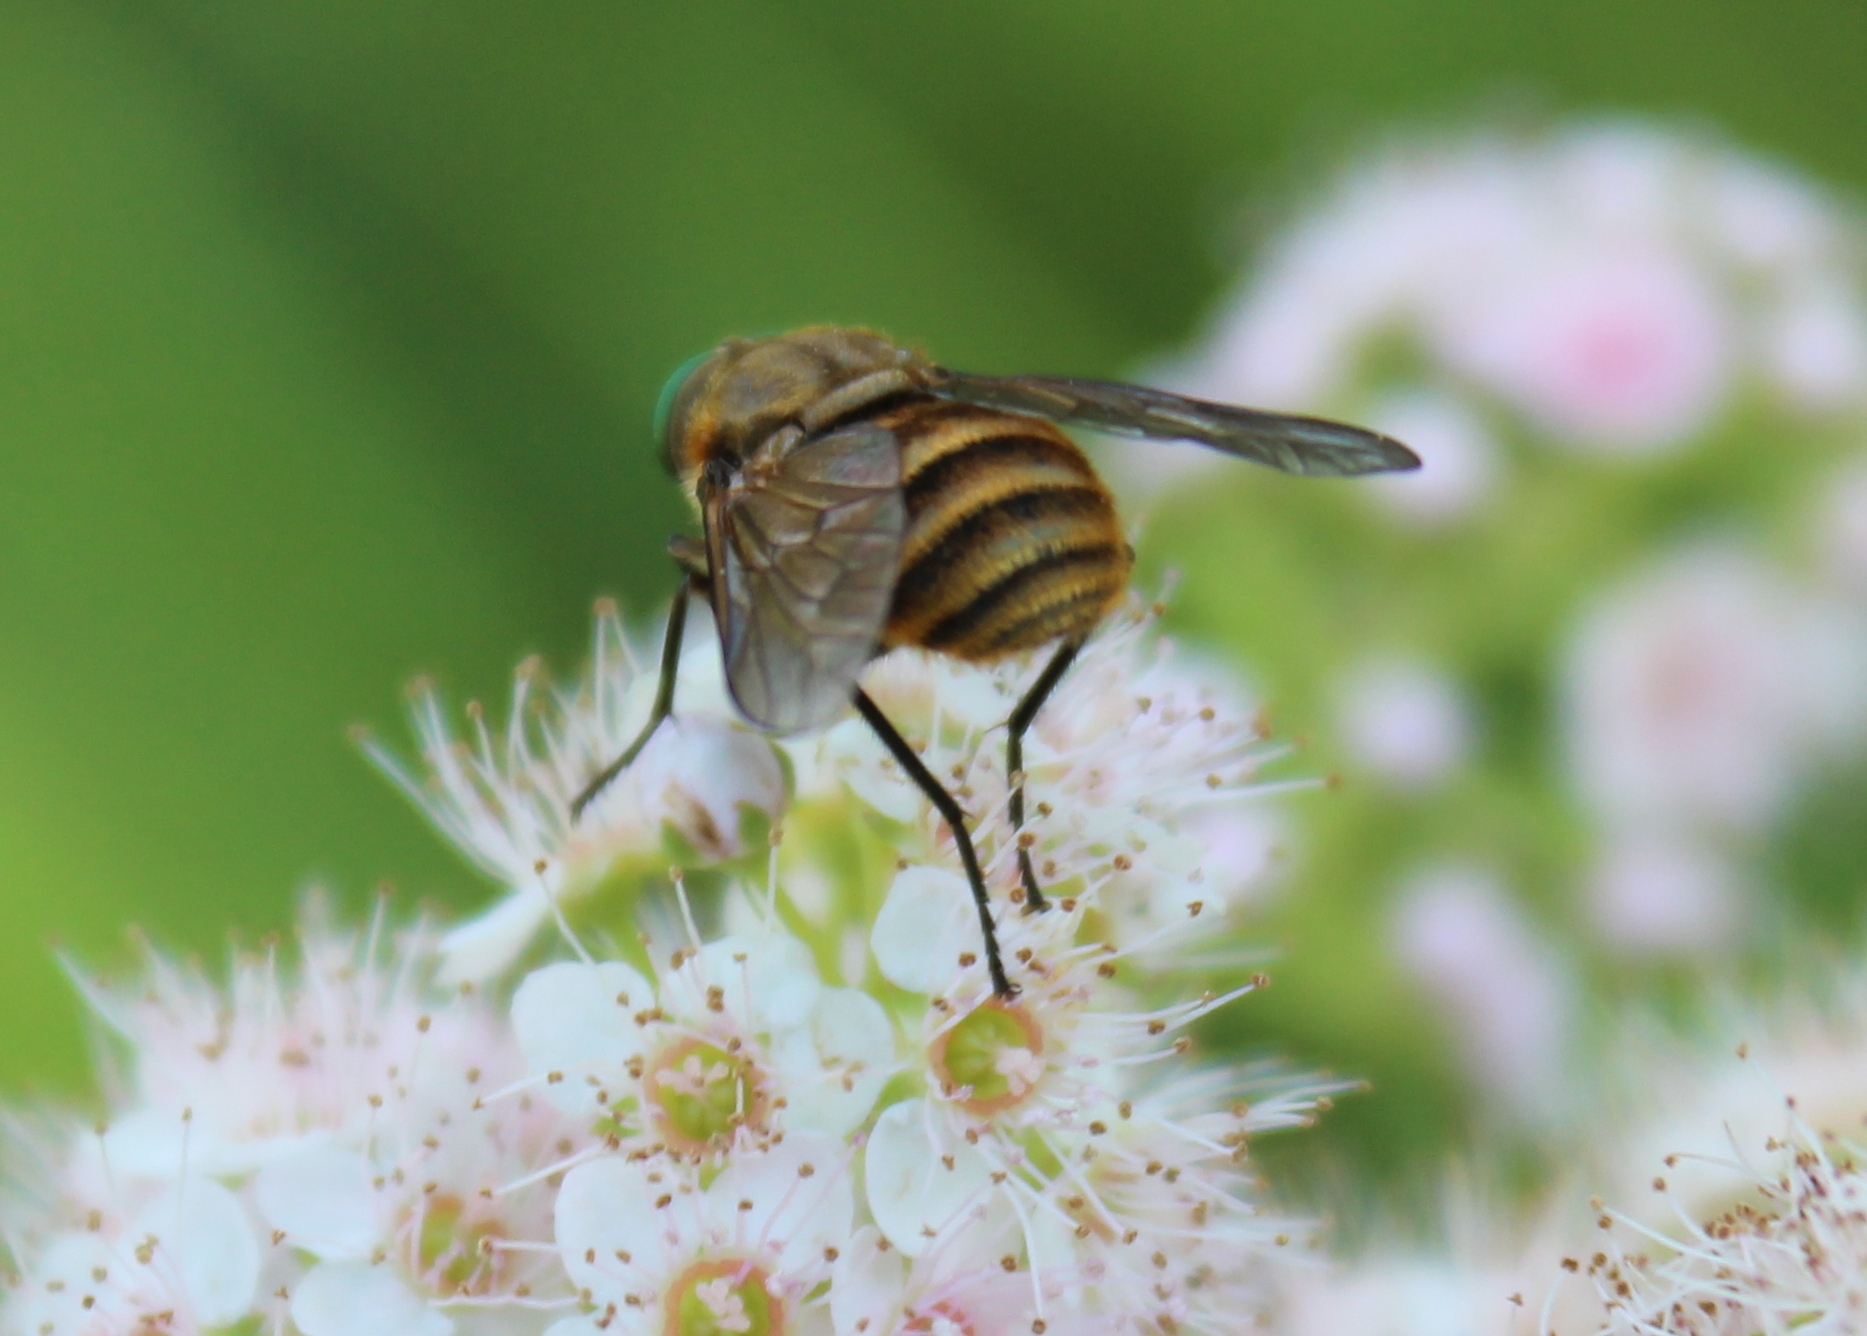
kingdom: Animalia
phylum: Arthropoda
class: Insecta
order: Diptera
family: Tabanidae
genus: Stonemyia
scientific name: Stonemyia tranquilla
